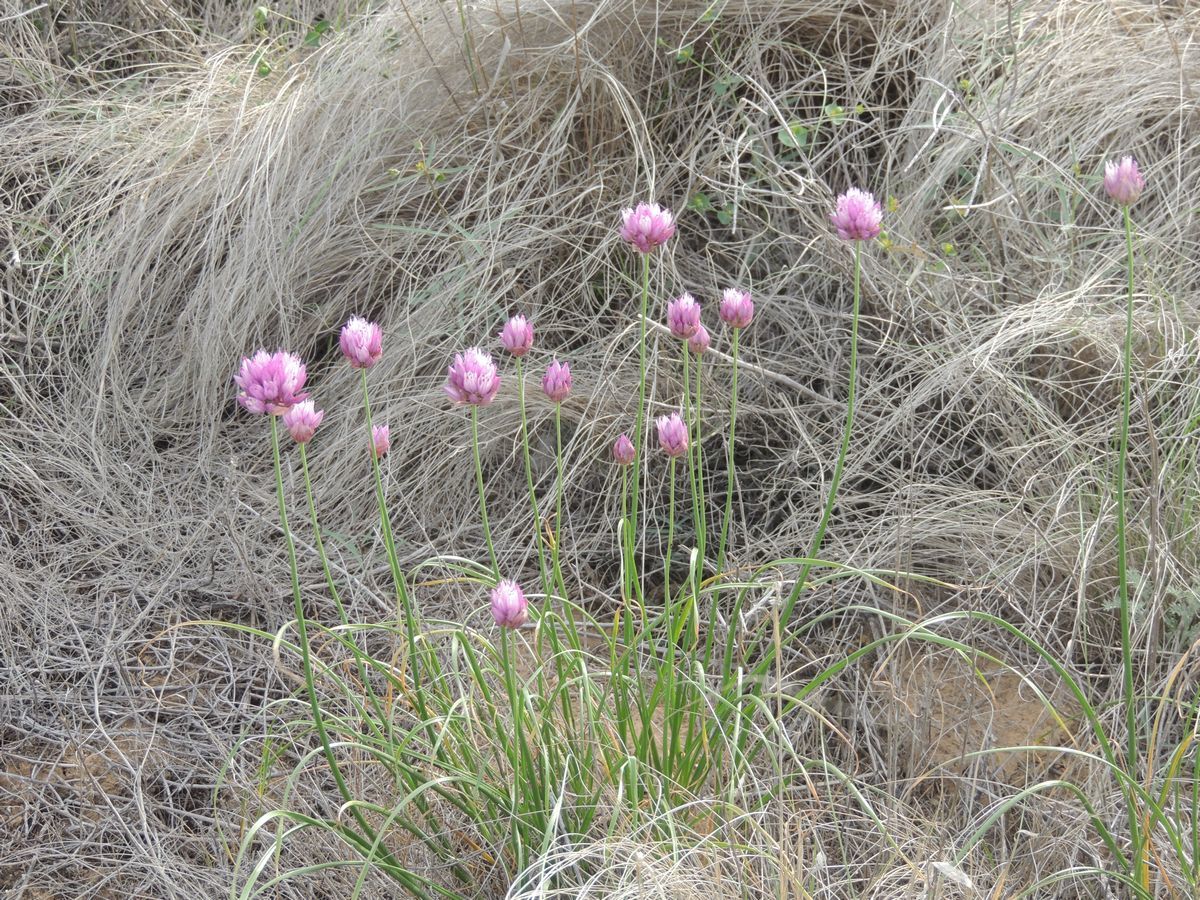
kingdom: Plantae
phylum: Tracheophyta
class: Liliopsida
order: Asparagales
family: Amaryllidaceae
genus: Allium
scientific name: Allium inderiense
